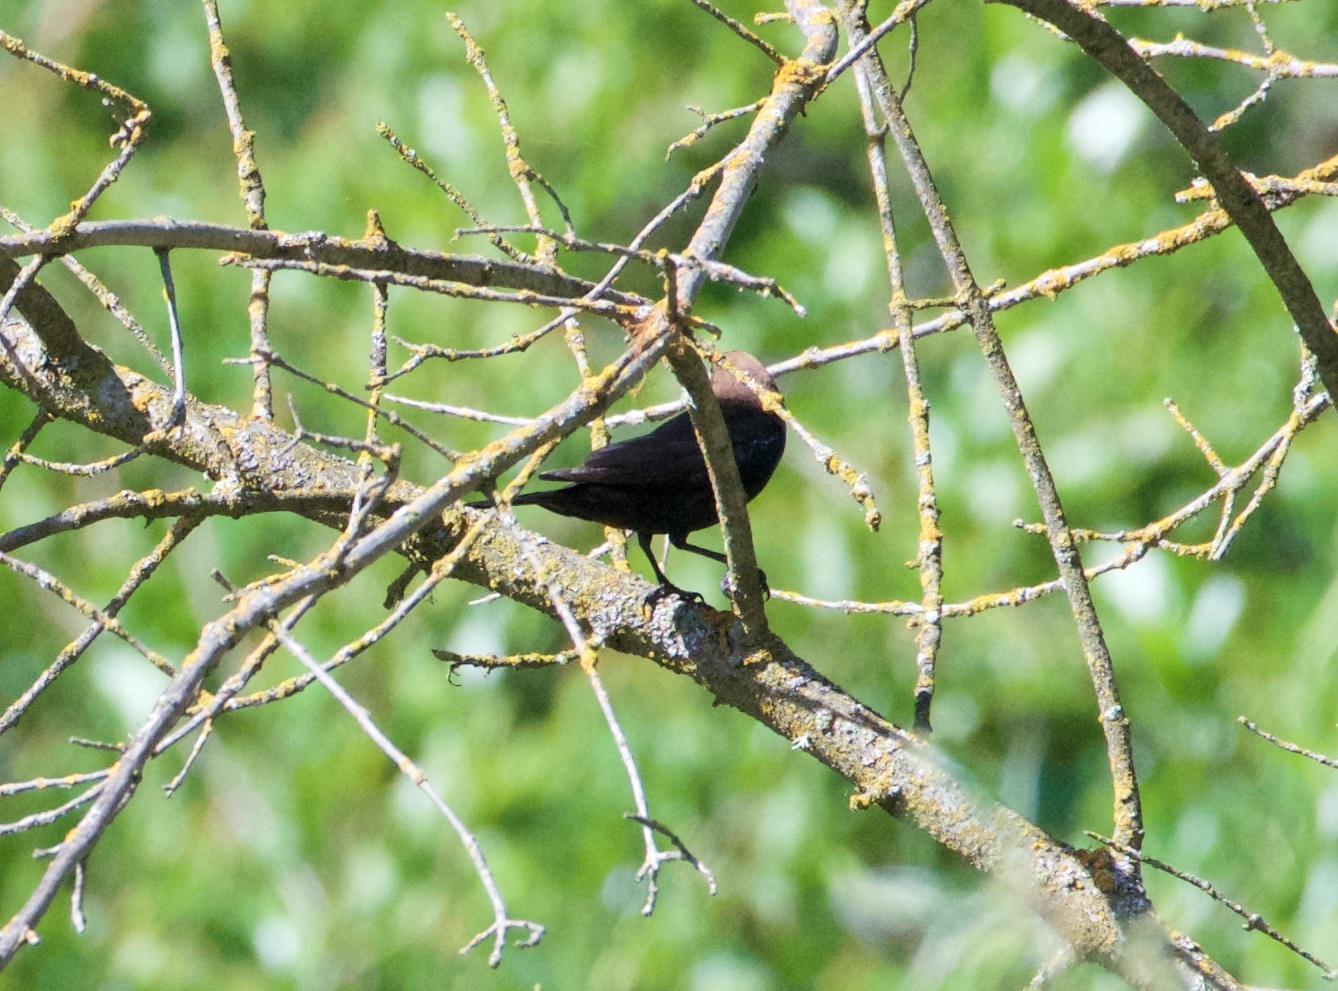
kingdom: Animalia
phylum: Chordata
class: Aves
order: Passeriformes
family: Icteridae
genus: Molothrus
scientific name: Molothrus ater
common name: Brown-headed cowbird
